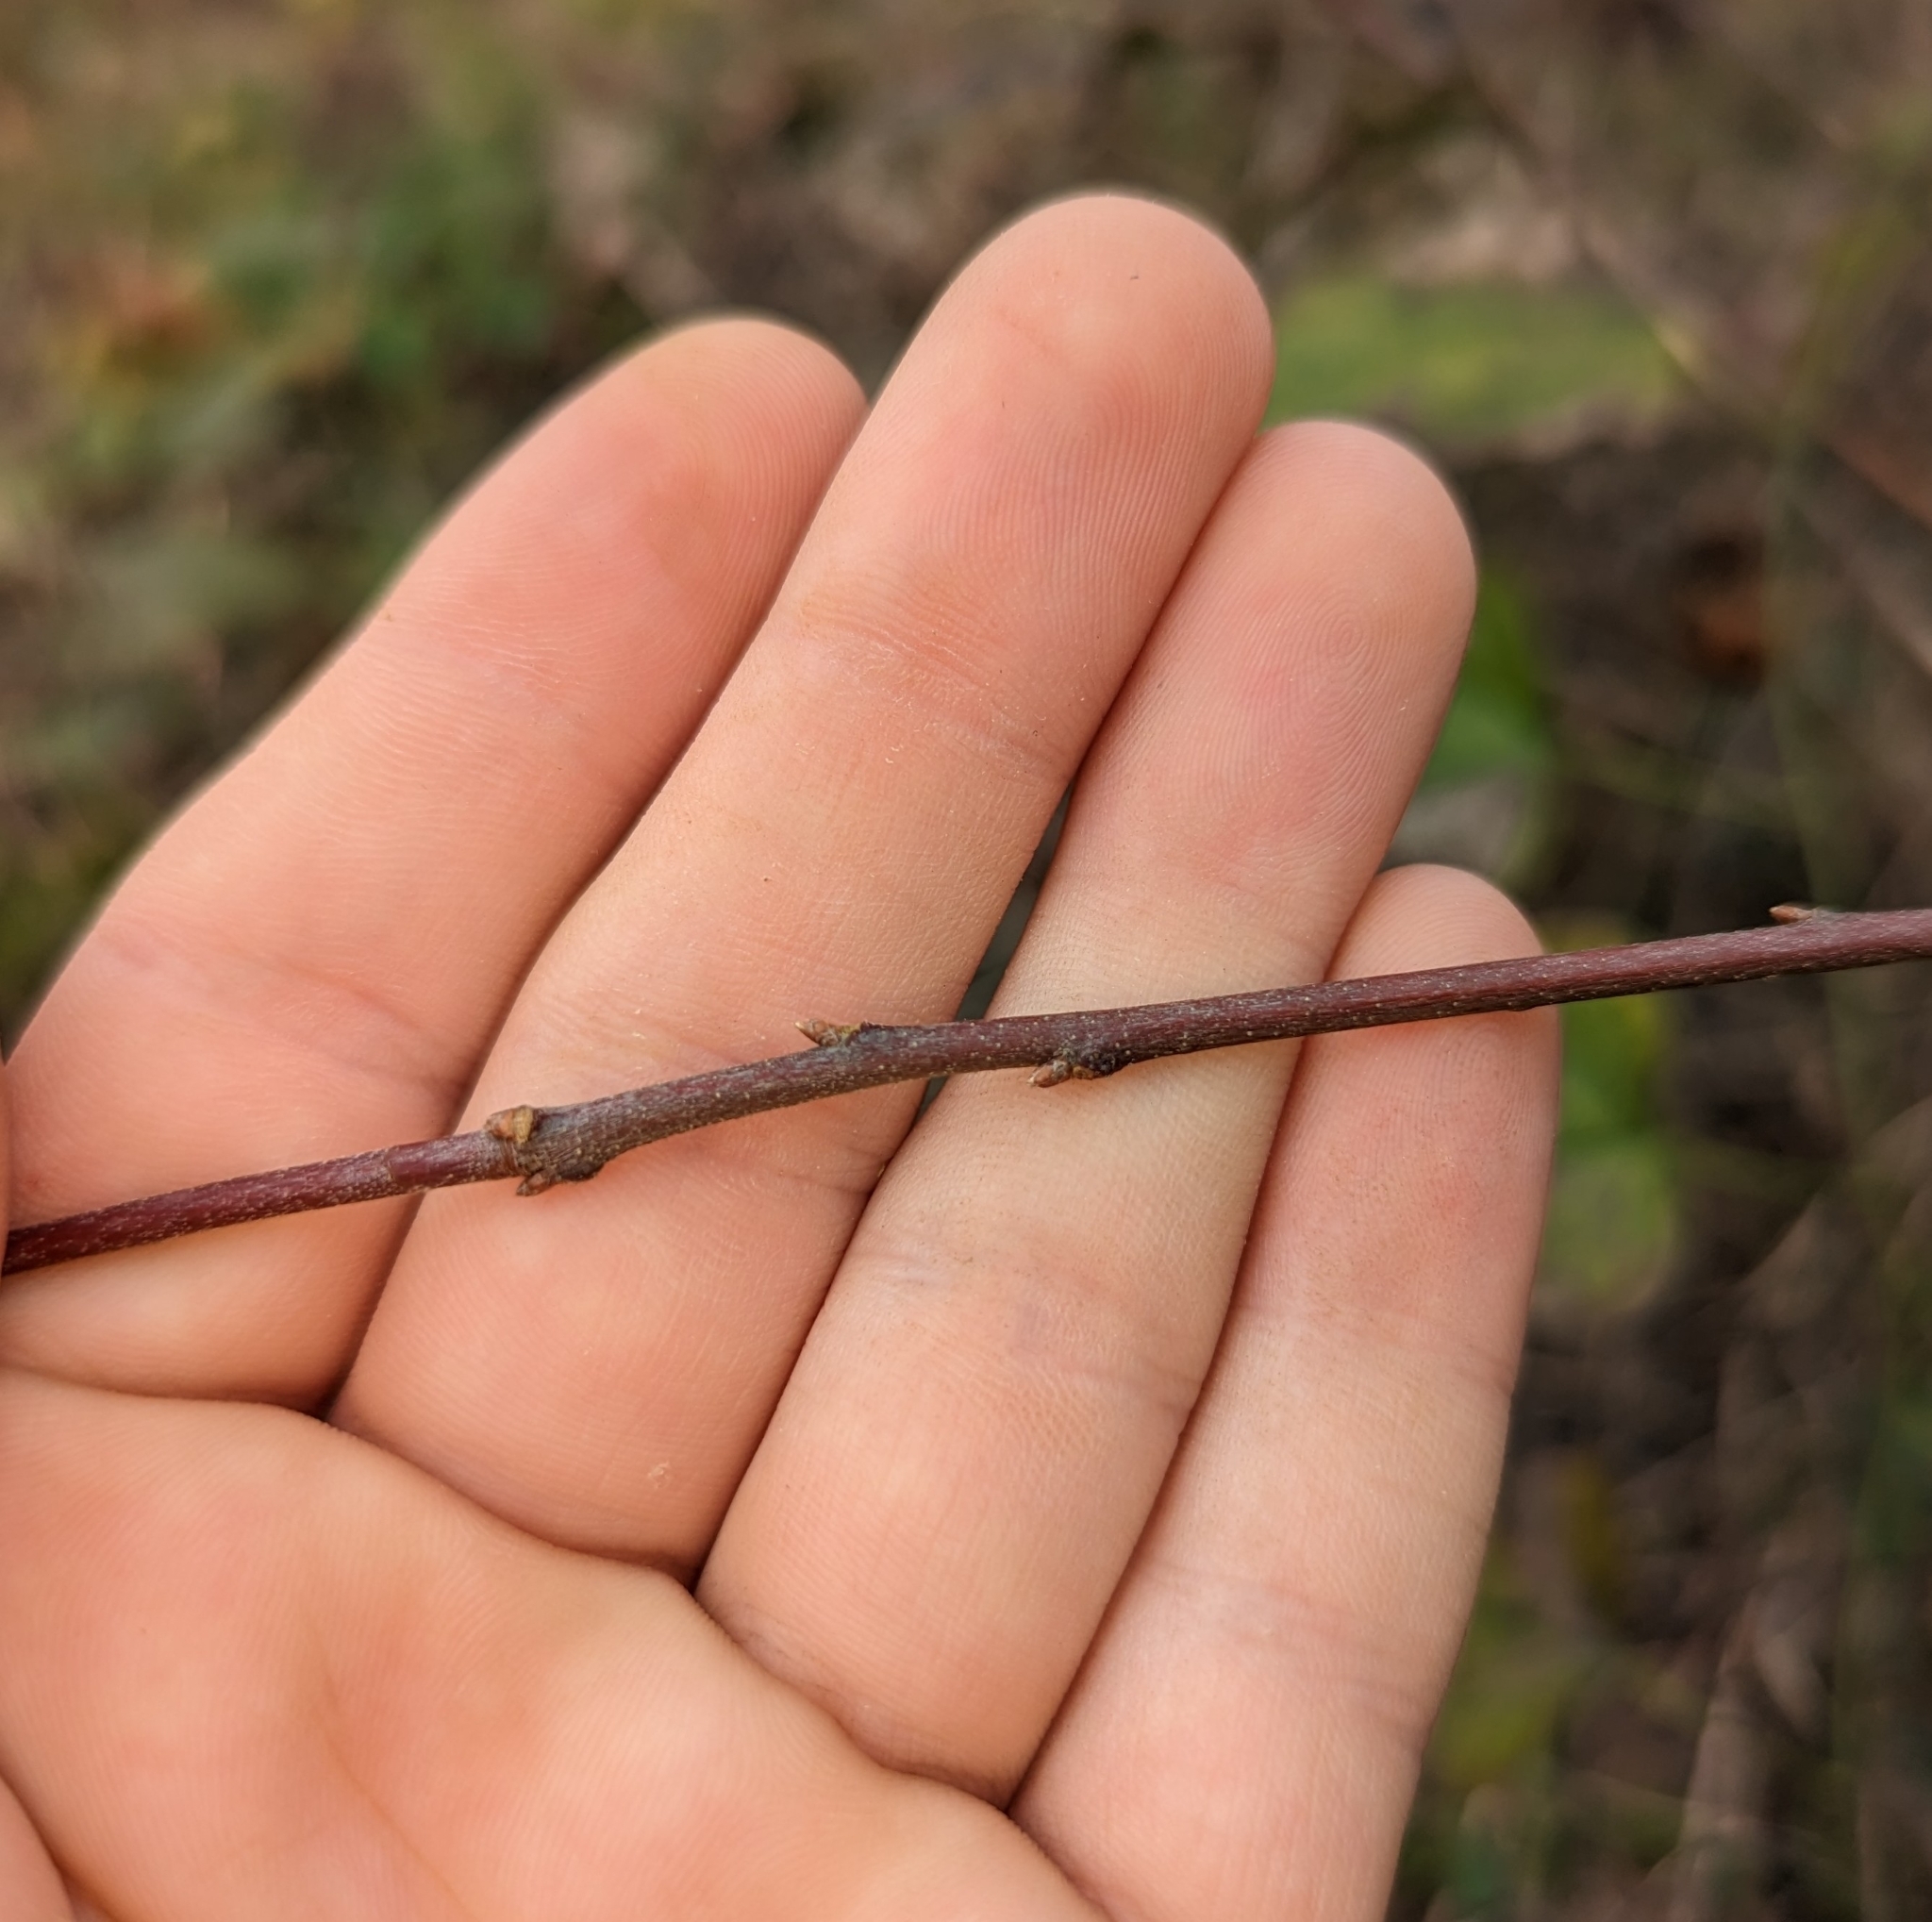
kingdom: Plantae
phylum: Tracheophyta
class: Magnoliopsida
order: Fagales
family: Fagaceae
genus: Quercus
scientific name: Quercus nigra
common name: Water oak
